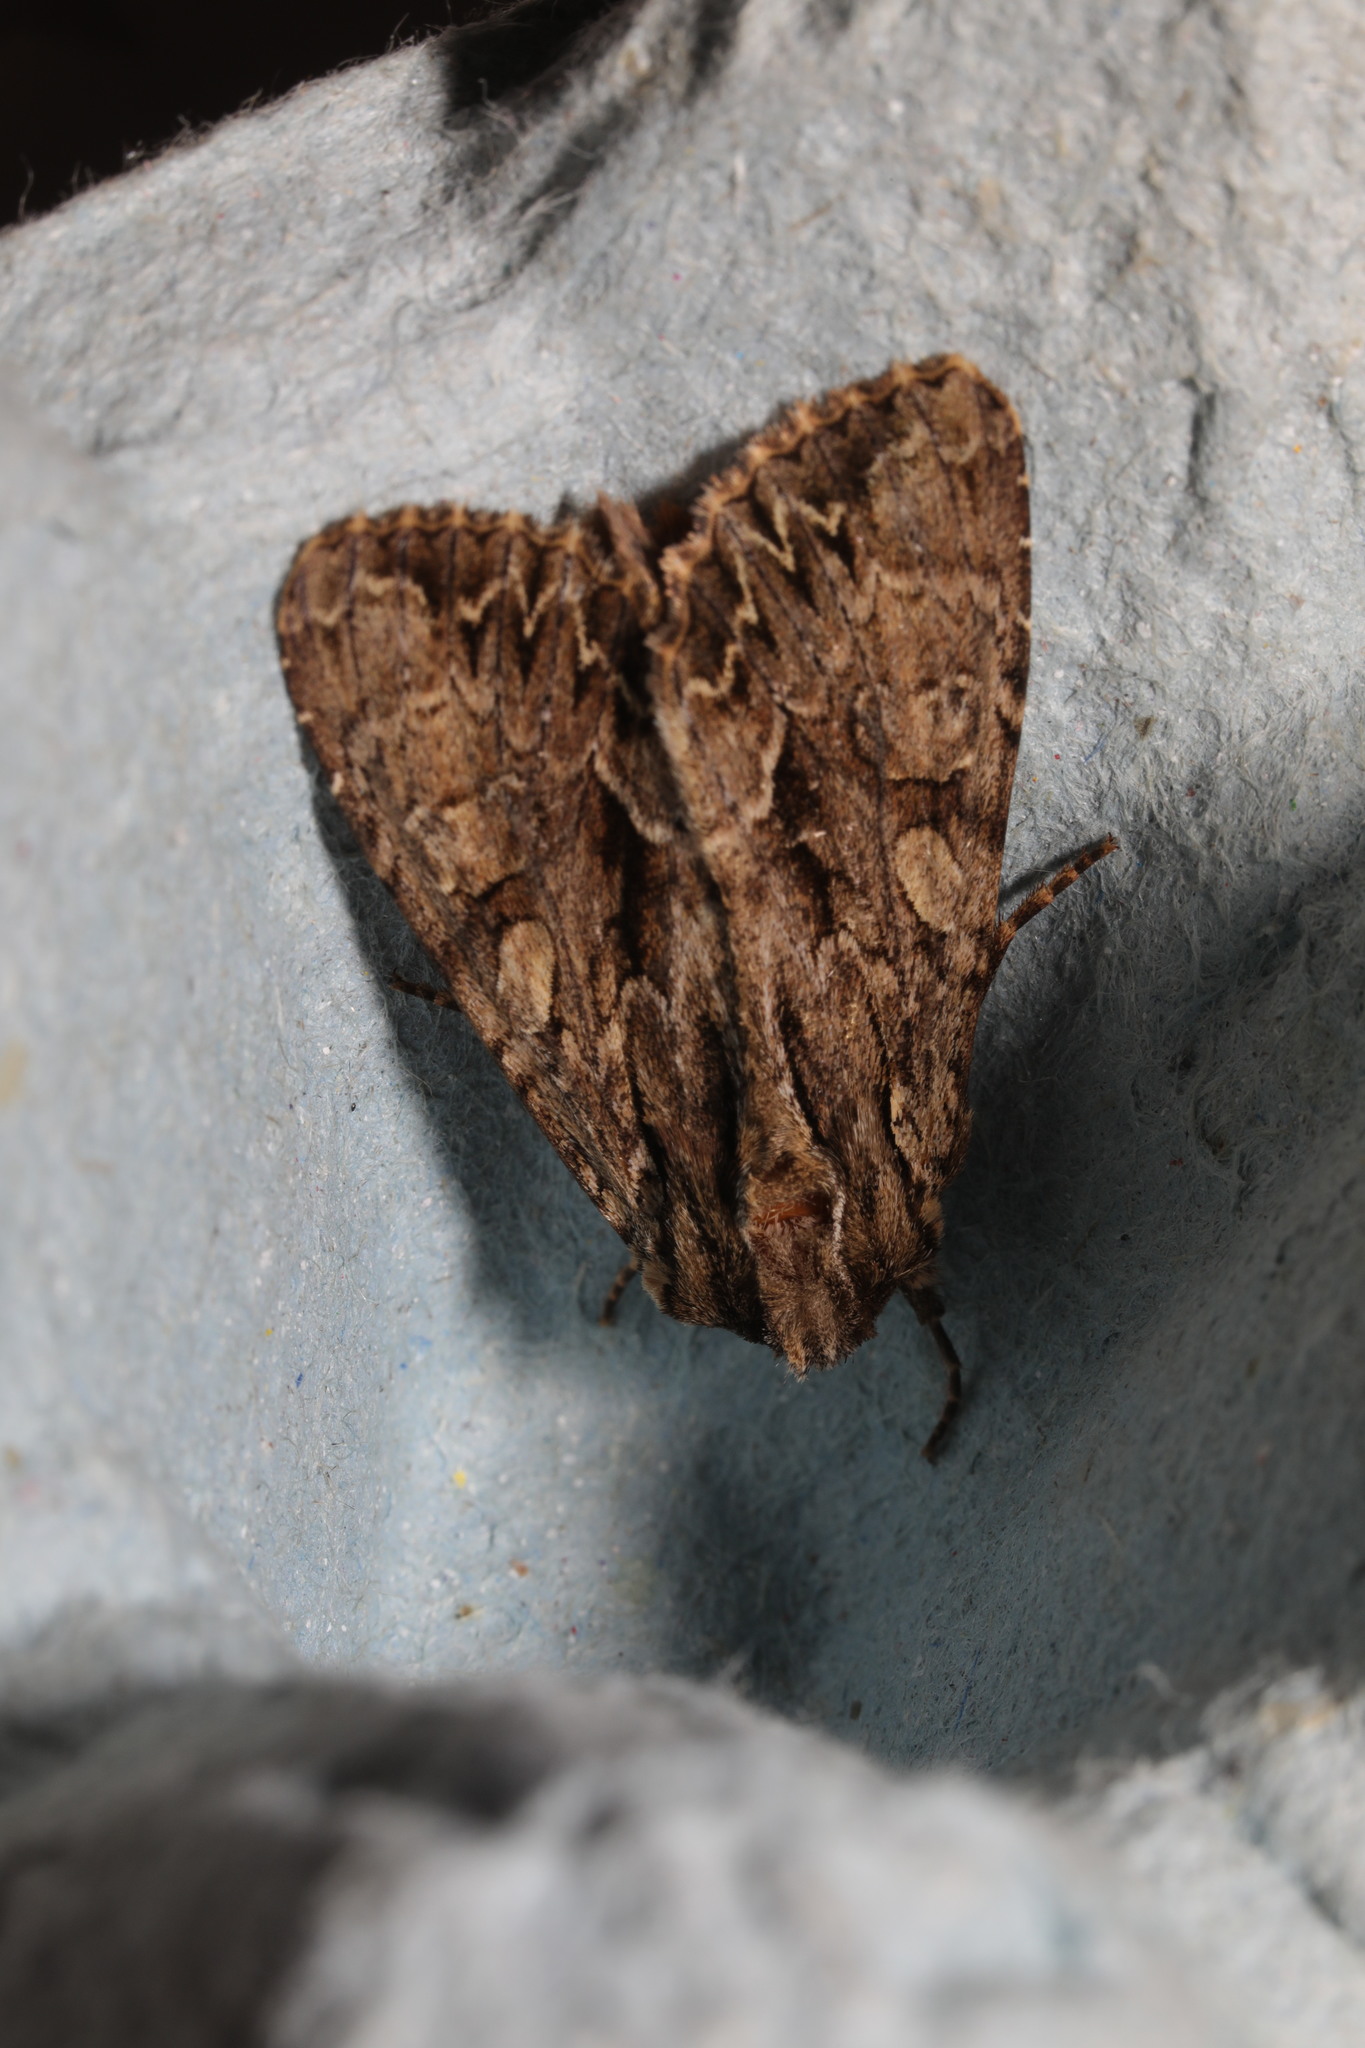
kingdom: Animalia
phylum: Arthropoda
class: Insecta
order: Lepidoptera
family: Noctuidae
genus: Apamea
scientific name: Apamea monoglypha
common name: Dark arches
